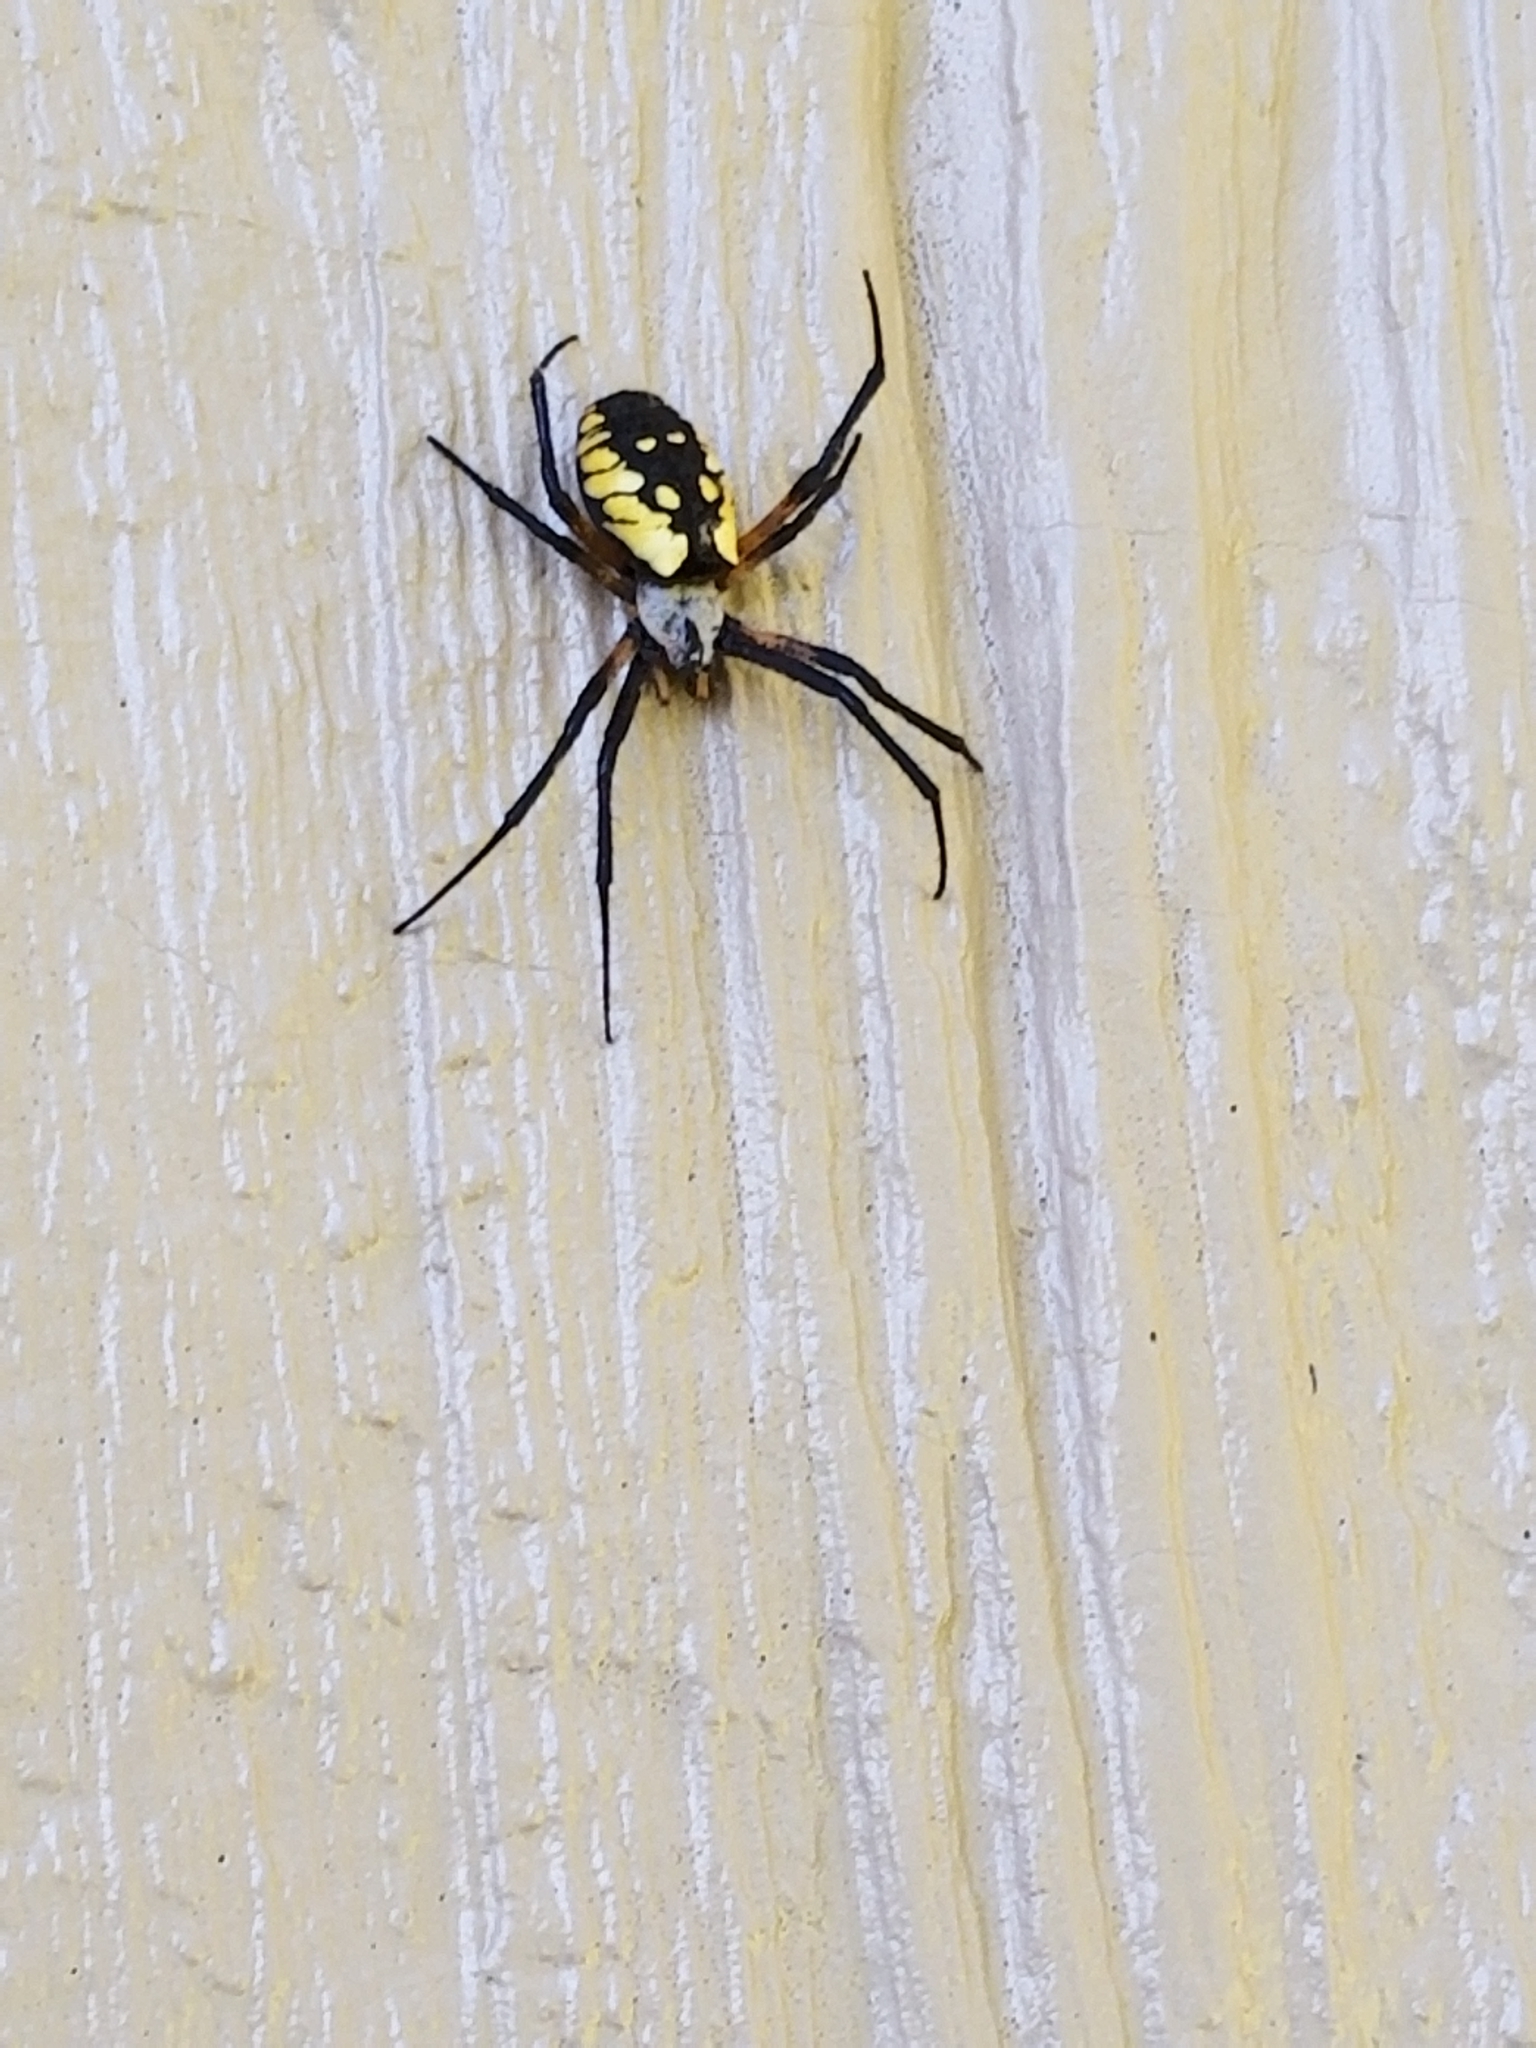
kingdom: Animalia
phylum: Arthropoda
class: Arachnida
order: Araneae
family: Araneidae
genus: Argiope
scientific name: Argiope aurantia
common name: Orb weavers
